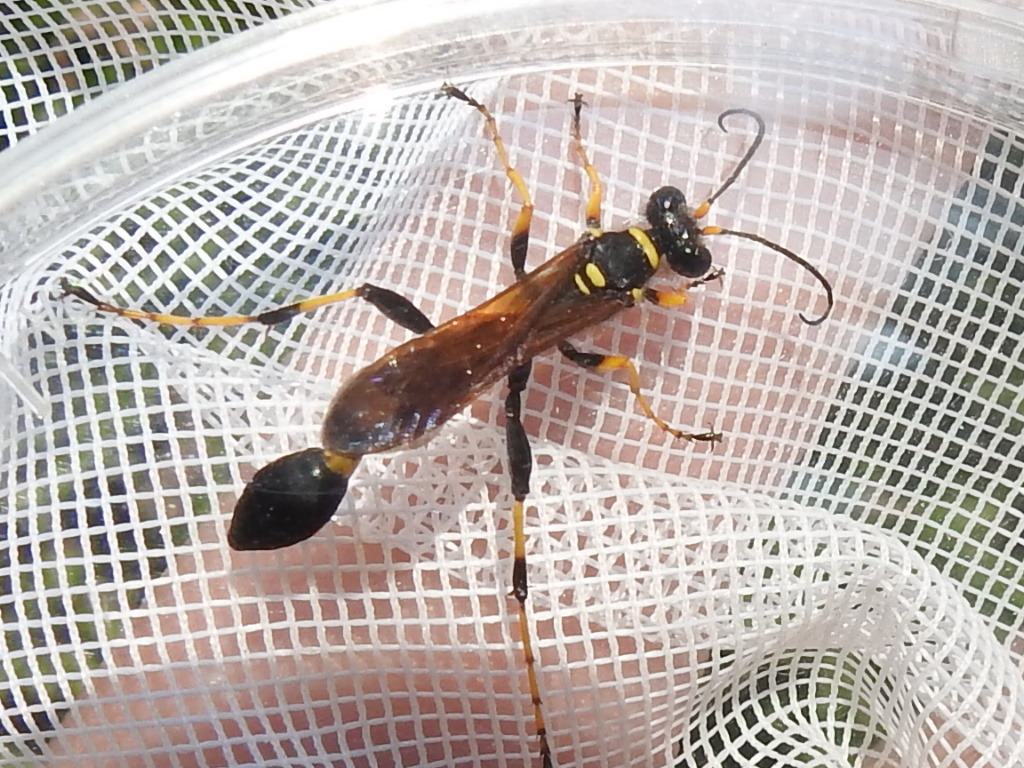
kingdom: Animalia
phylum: Arthropoda
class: Insecta
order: Hymenoptera
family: Sphecidae
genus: Sceliphron
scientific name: Sceliphron caementarium
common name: Mud dauber
